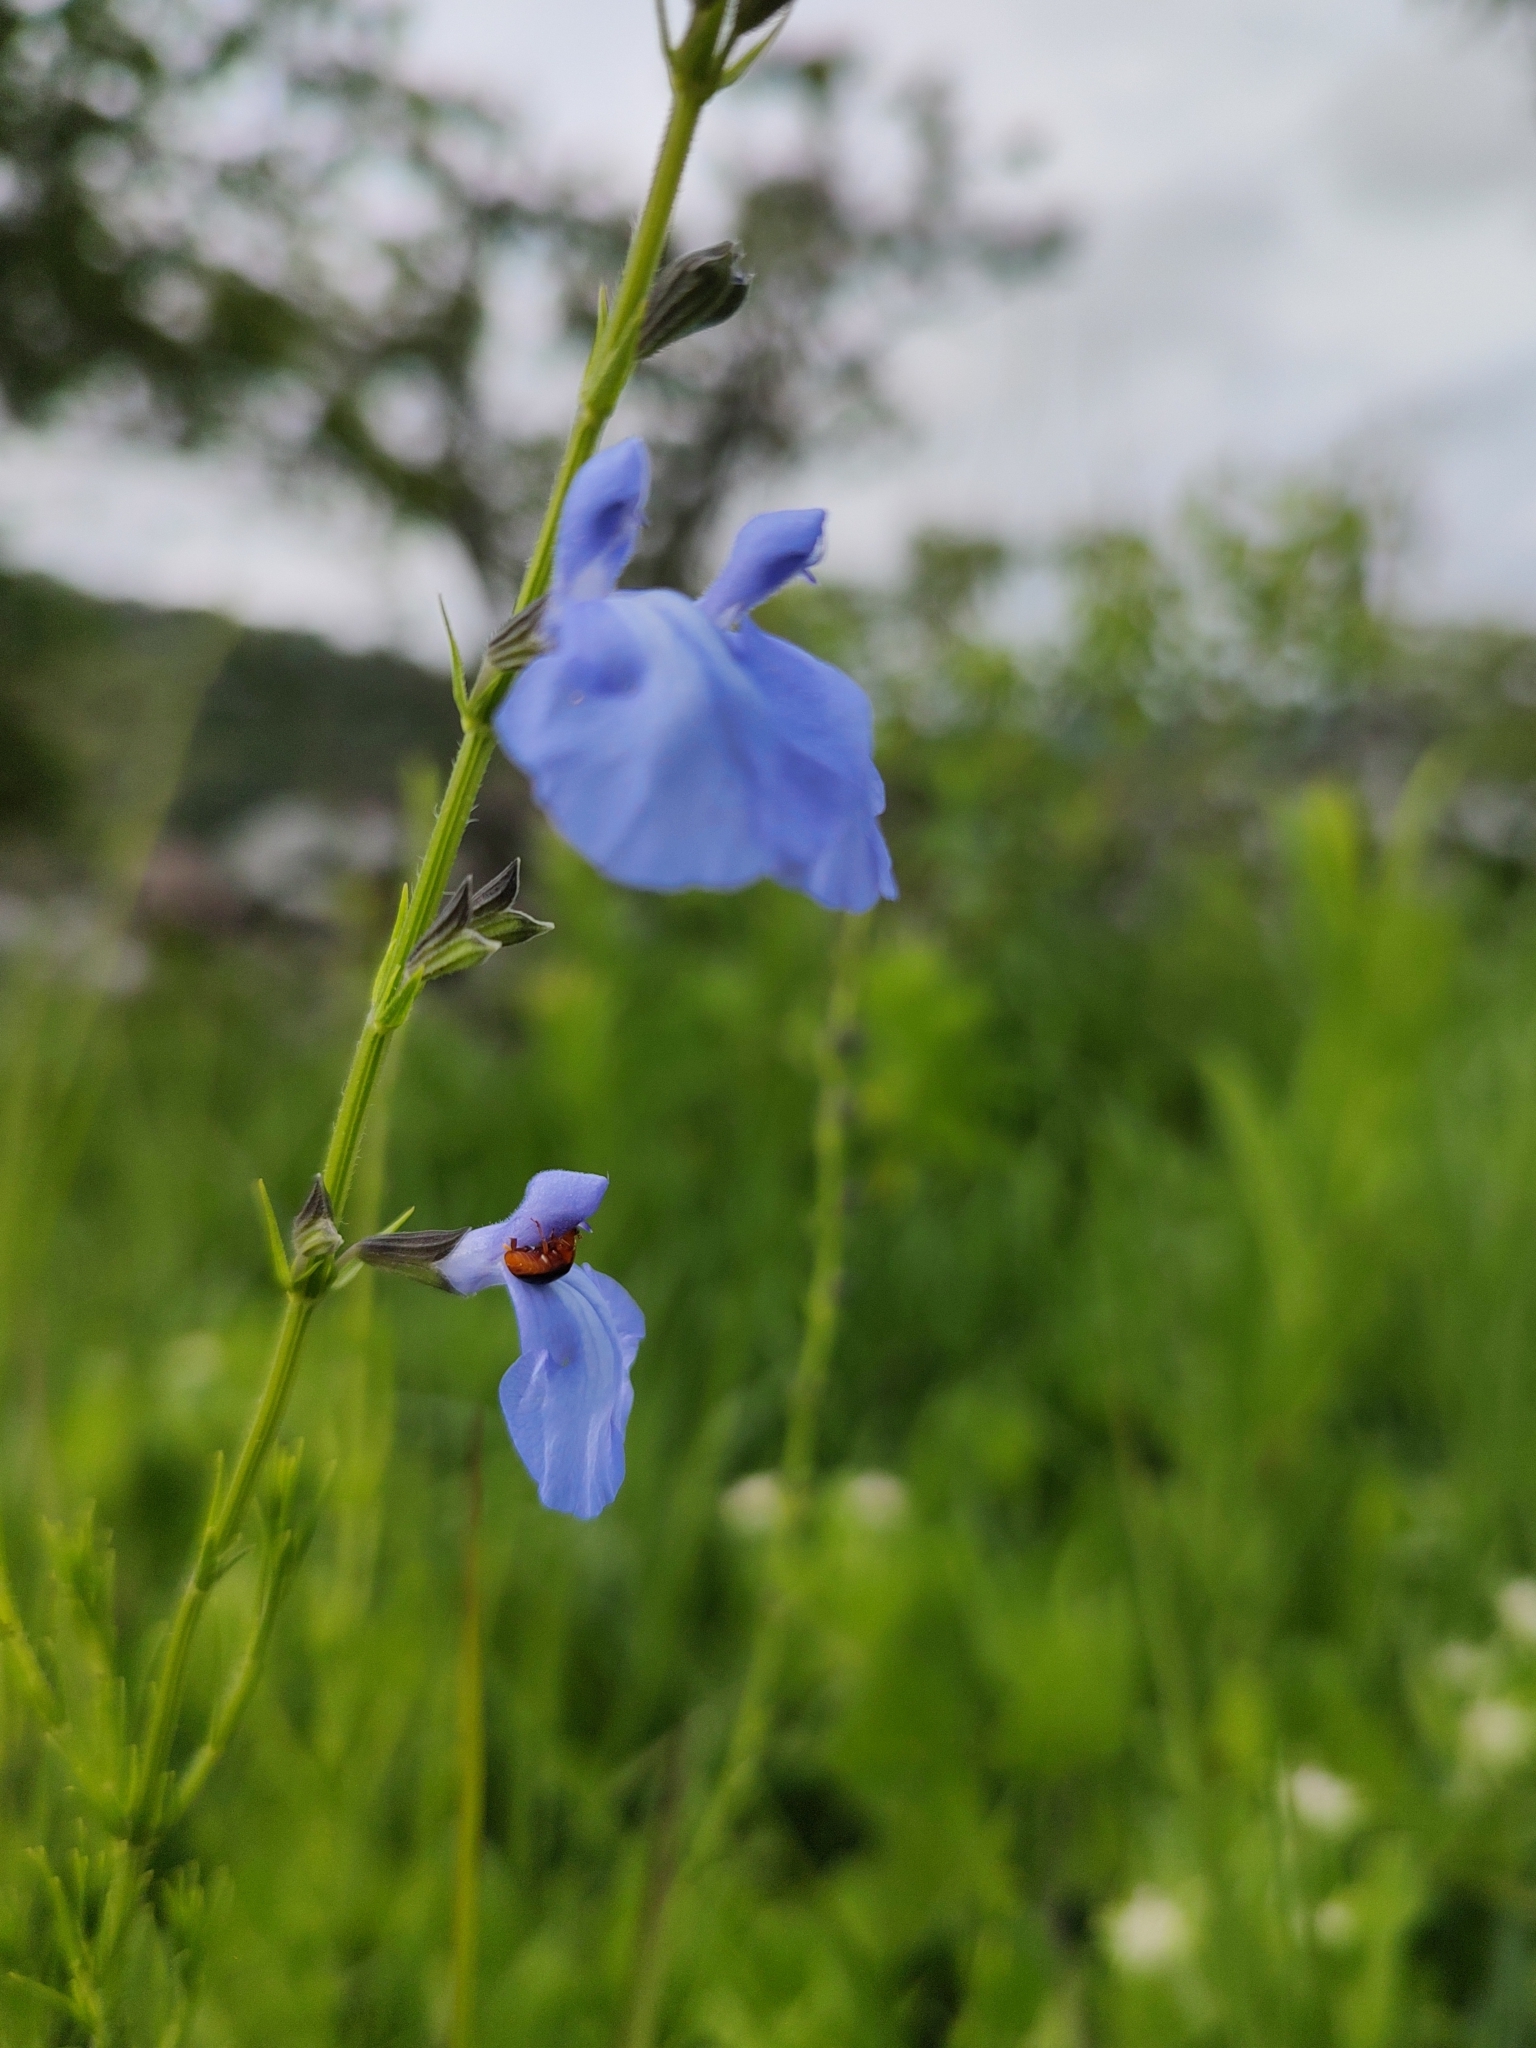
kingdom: Plantae
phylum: Tracheophyta
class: Magnoliopsida
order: Lamiales
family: Lamiaceae
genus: Salvia
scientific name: Salvia reptans
